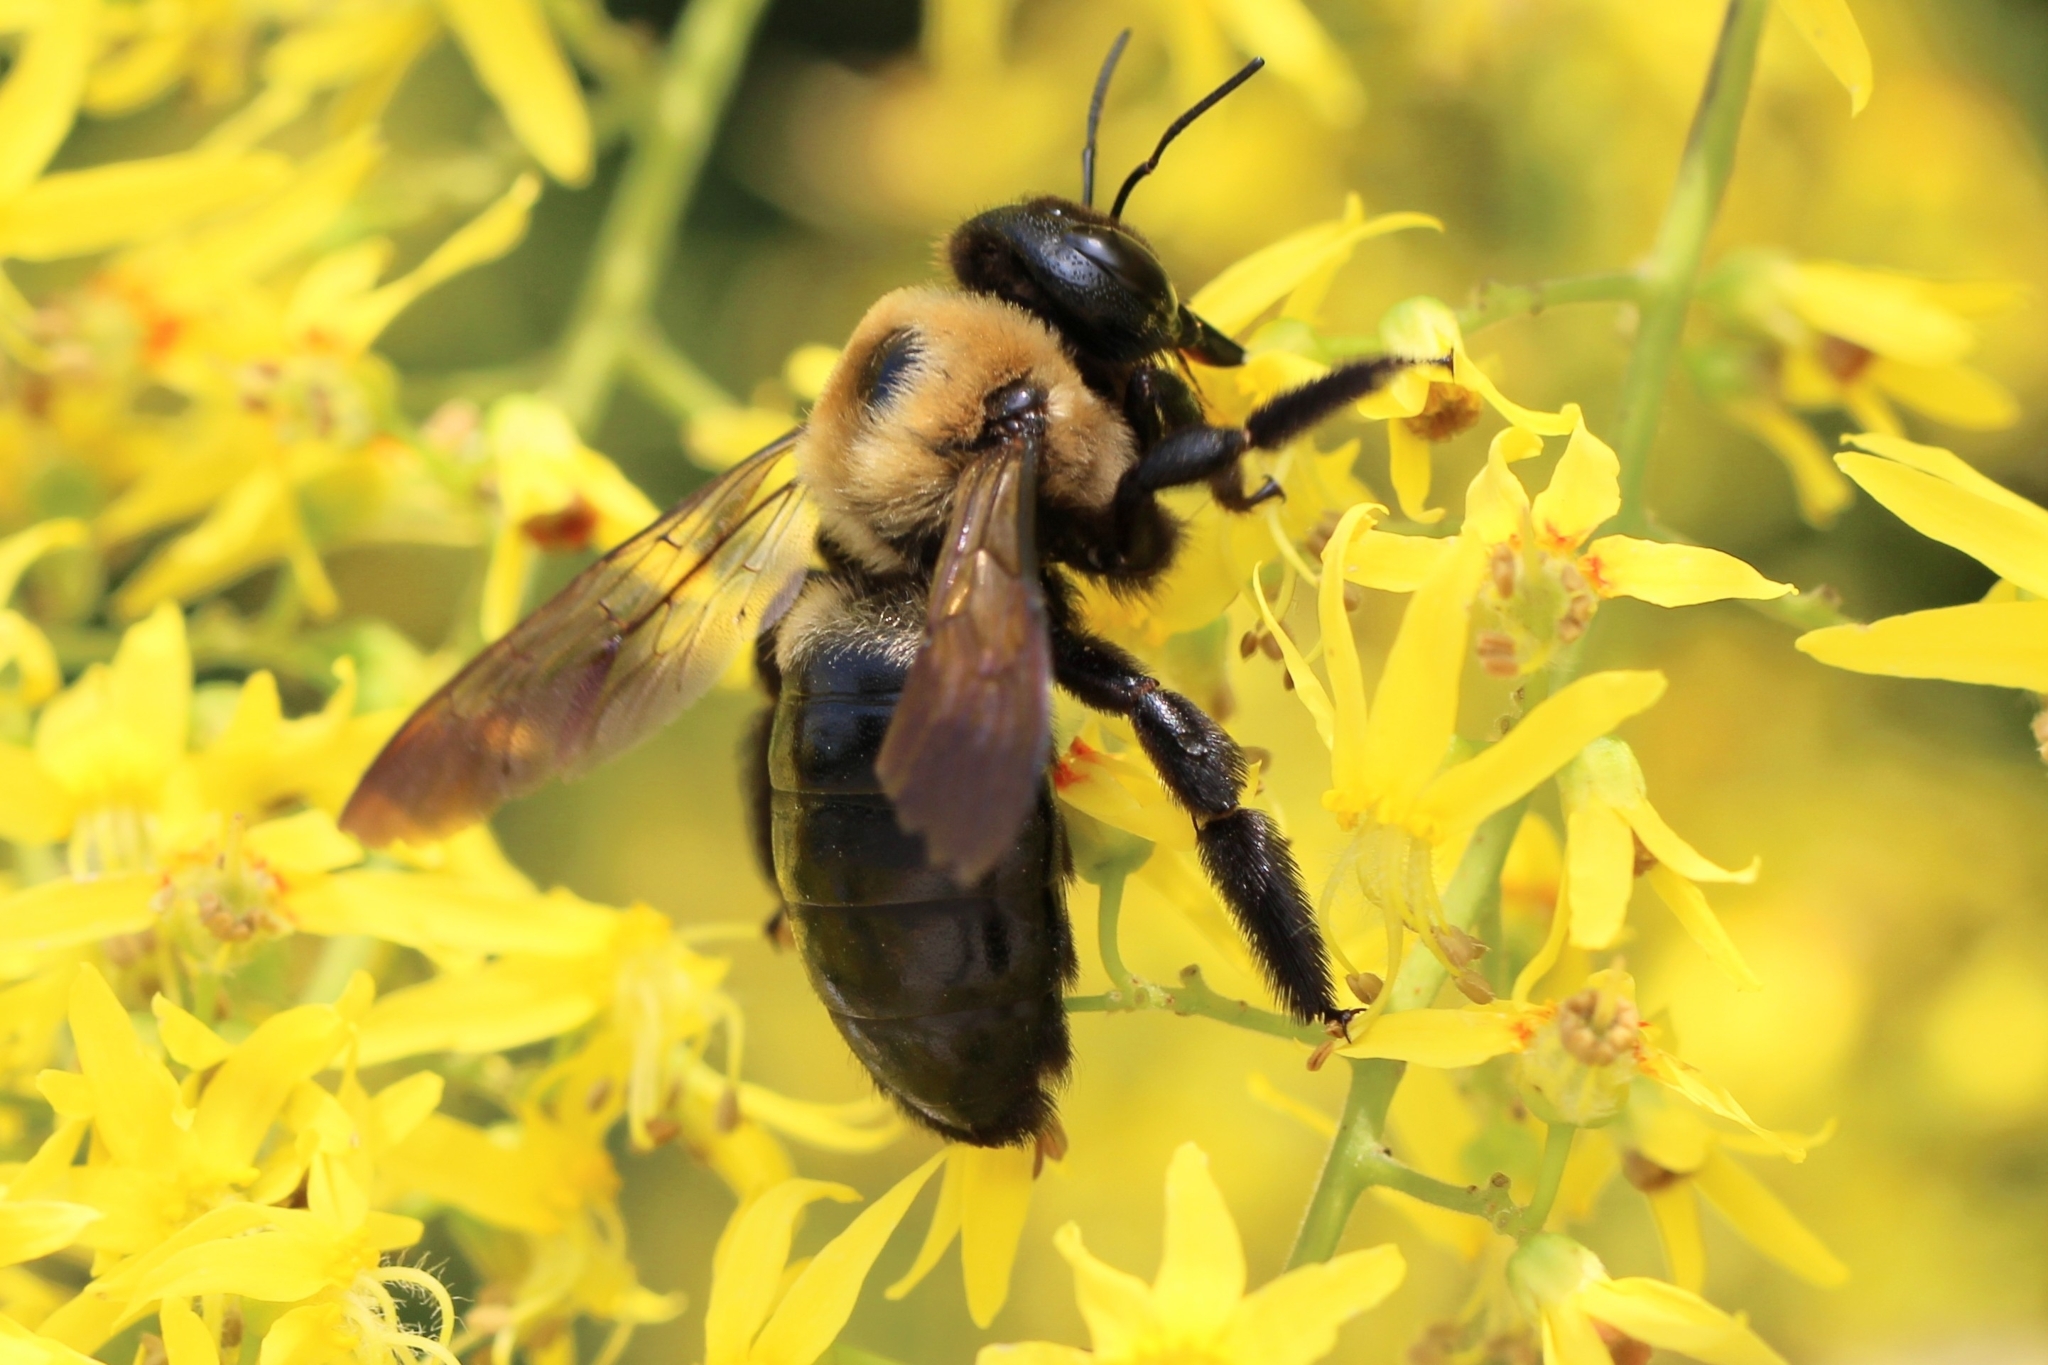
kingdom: Animalia
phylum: Arthropoda
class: Insecta
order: Hymenoptera
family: Megachilidae
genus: Megachile
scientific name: Megachile sculpturalis
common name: Sculptured resin bee
